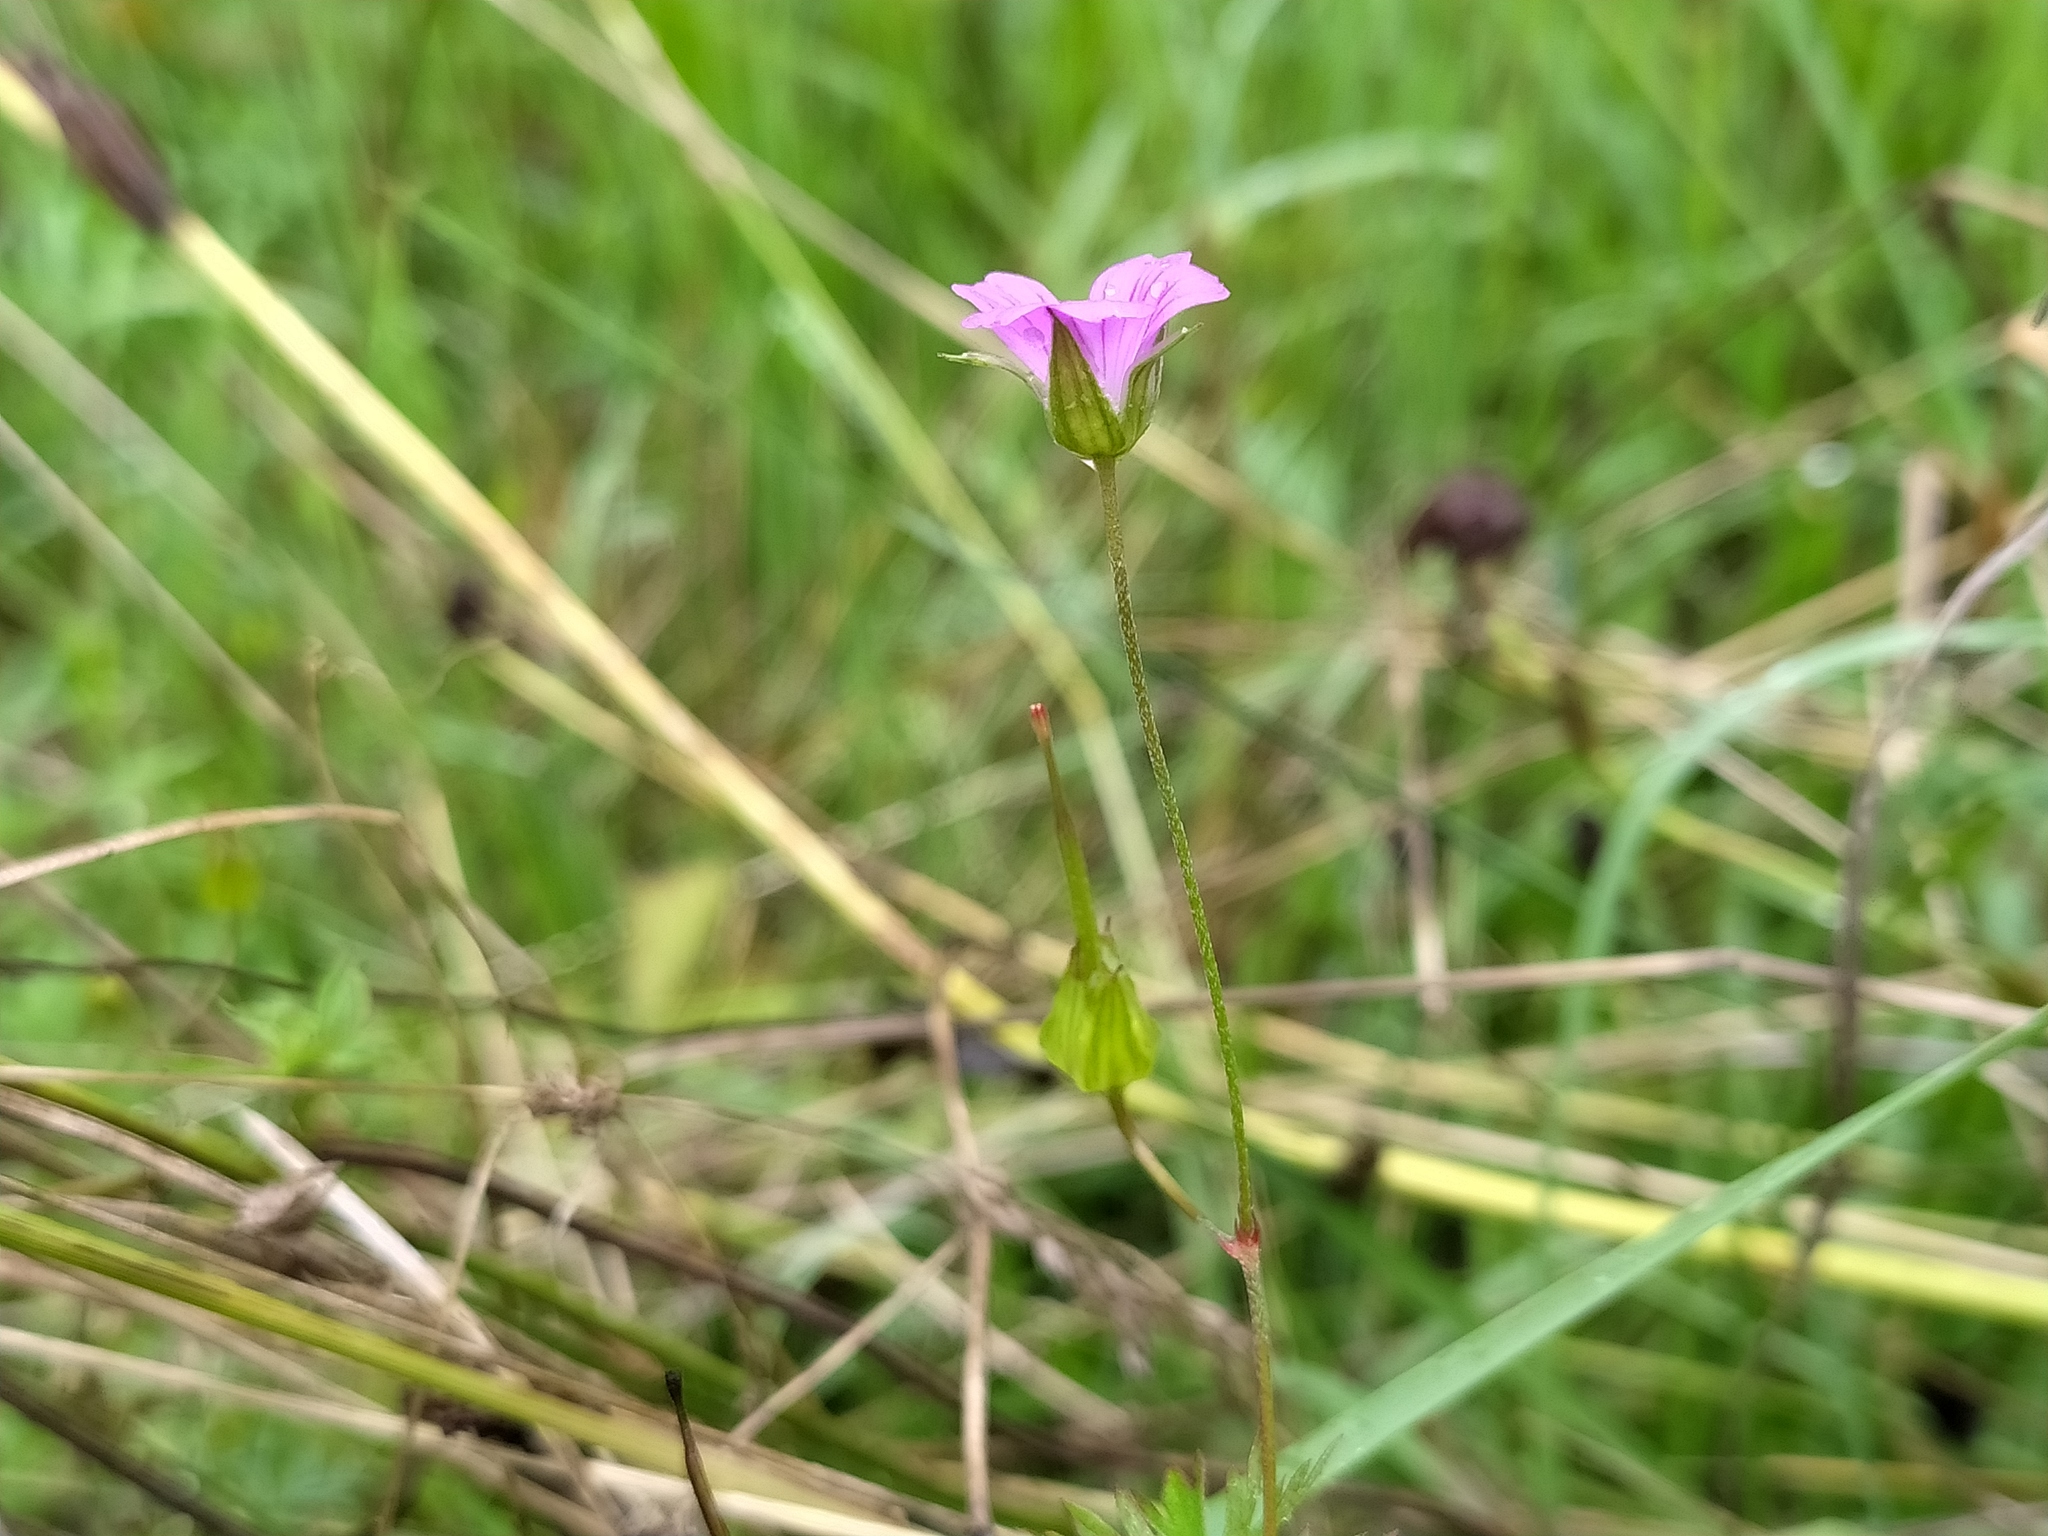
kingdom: Plantae
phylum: Tracheophyta
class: Magnoliopsida
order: Geraniales
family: Geraniaceae
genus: Geranium
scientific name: Geranium columbinum
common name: Long-stalked crane's-bill
